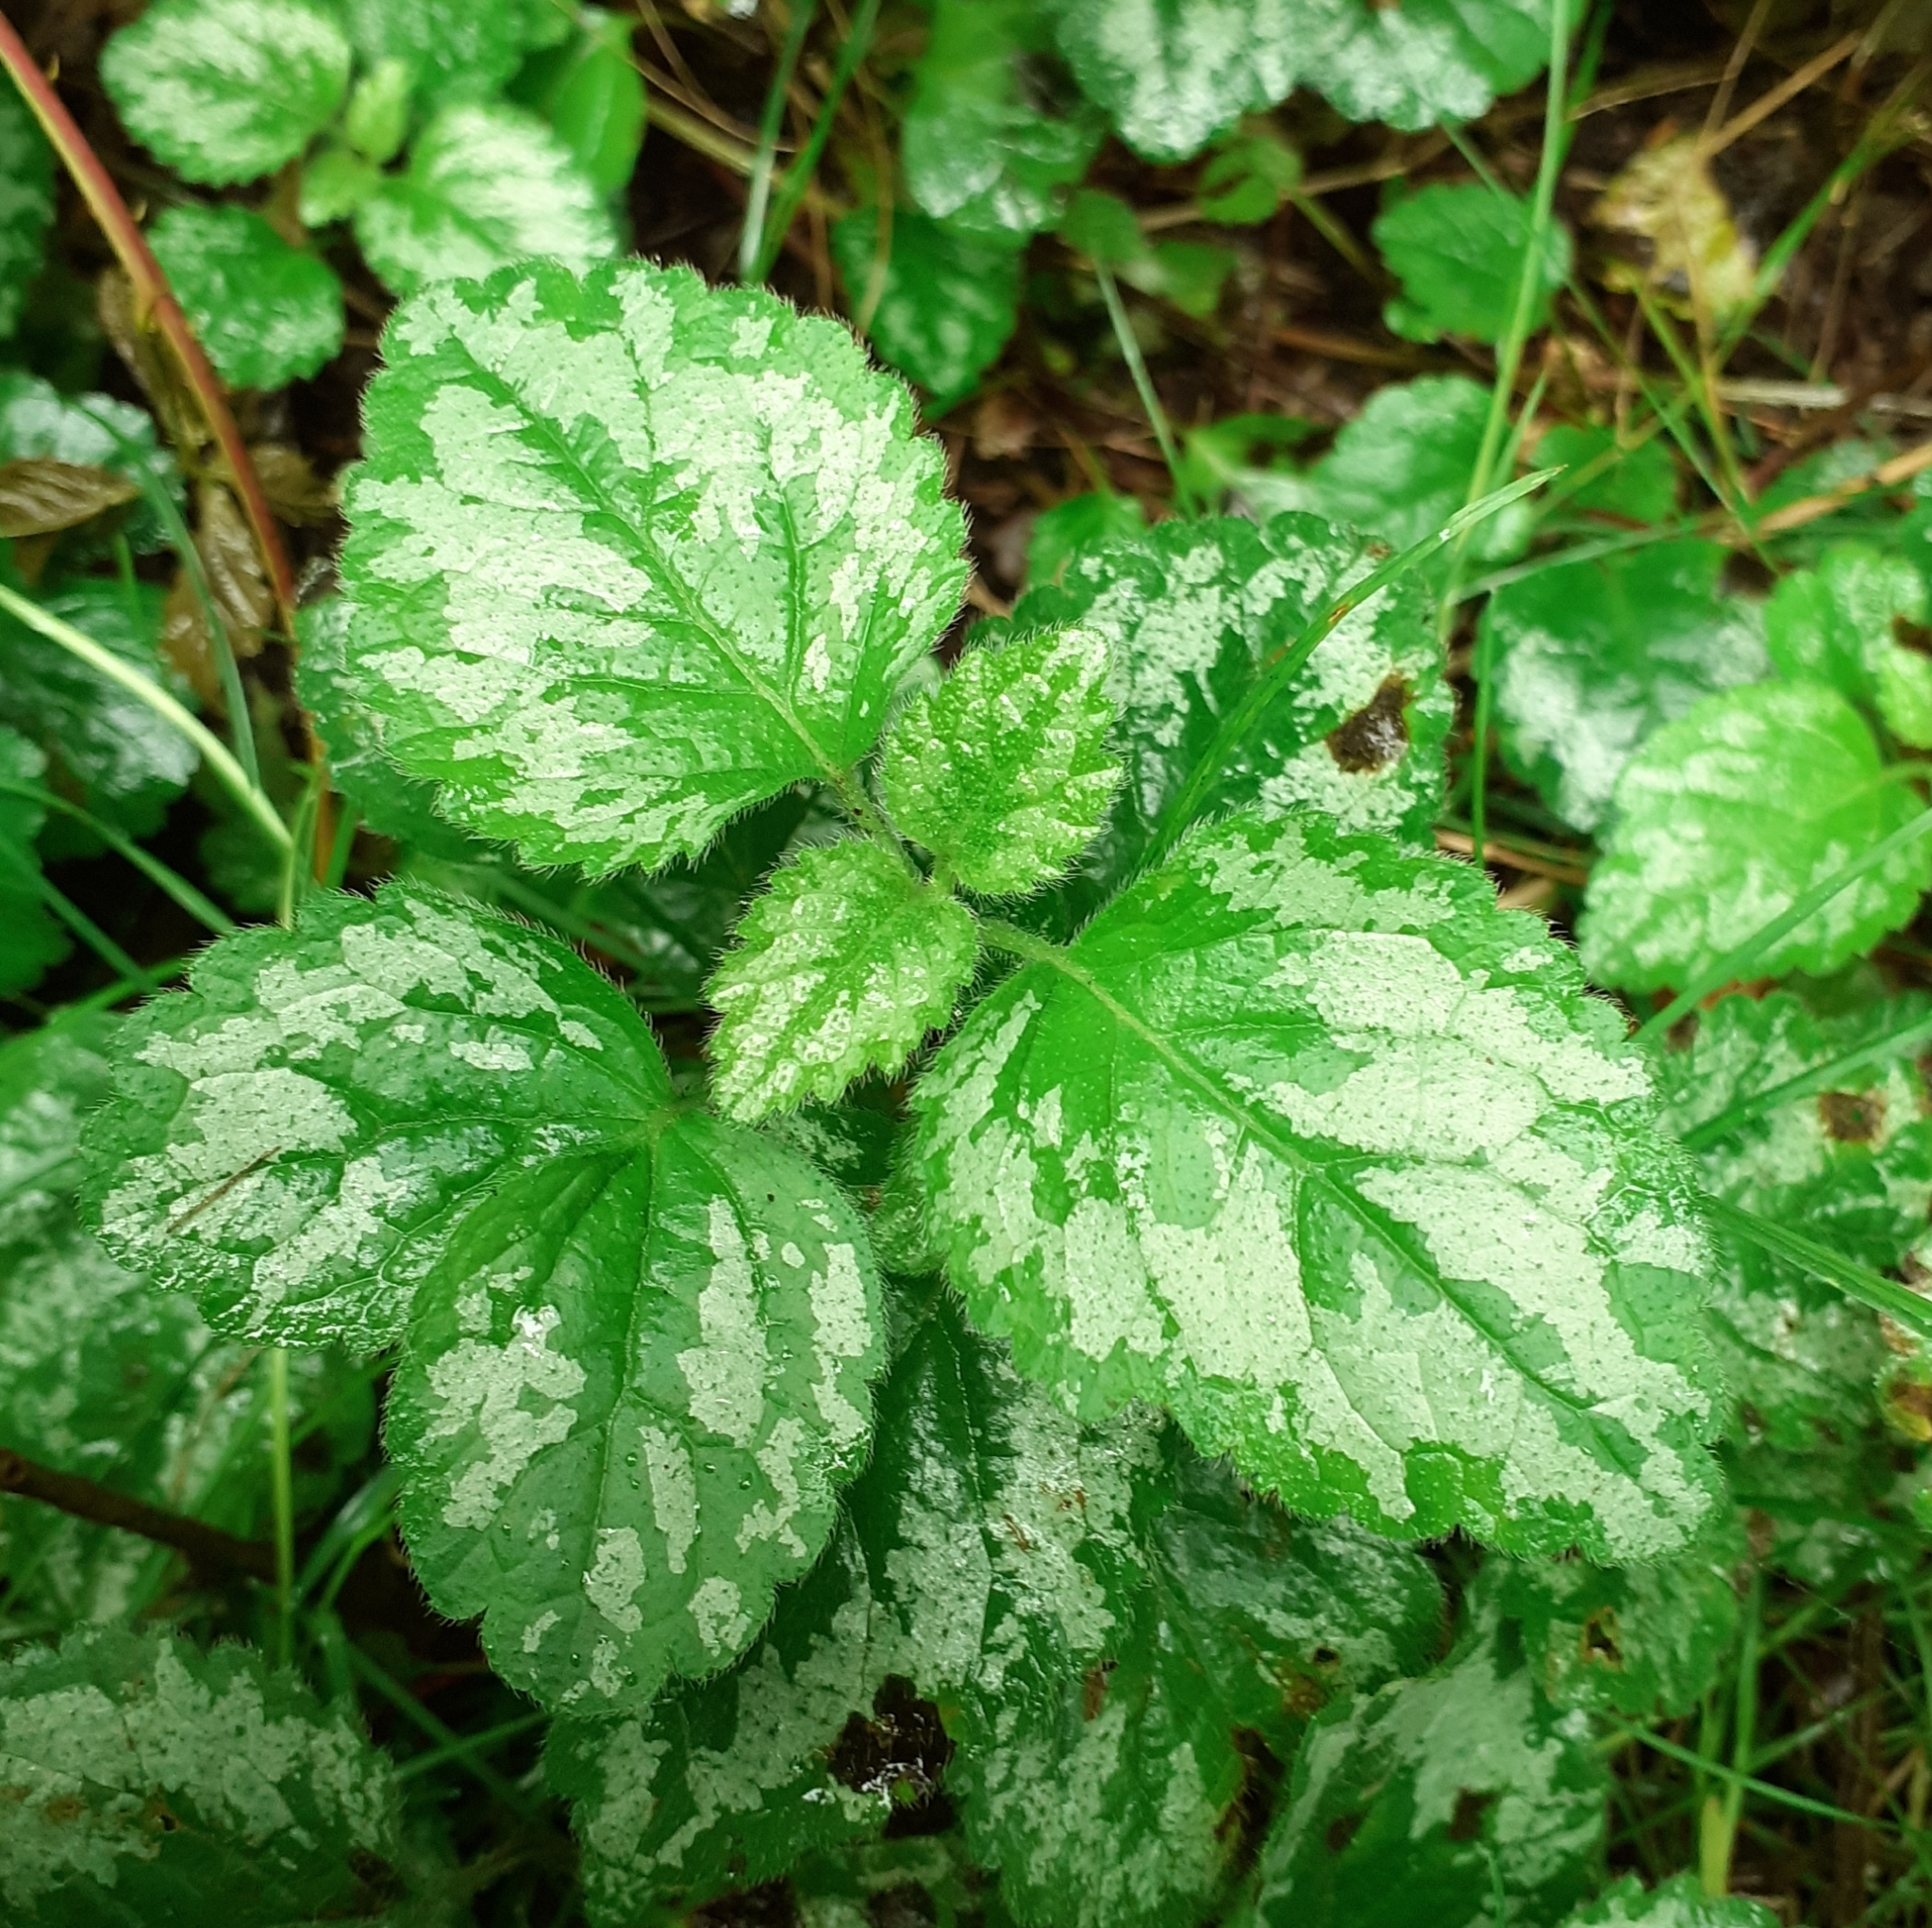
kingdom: Plantae
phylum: Tracheophyta
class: Magnoliopsida
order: Lamiales
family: Lamiaceae
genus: Lamium
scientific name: Lamium galeobdolon
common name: Yellow archangel
